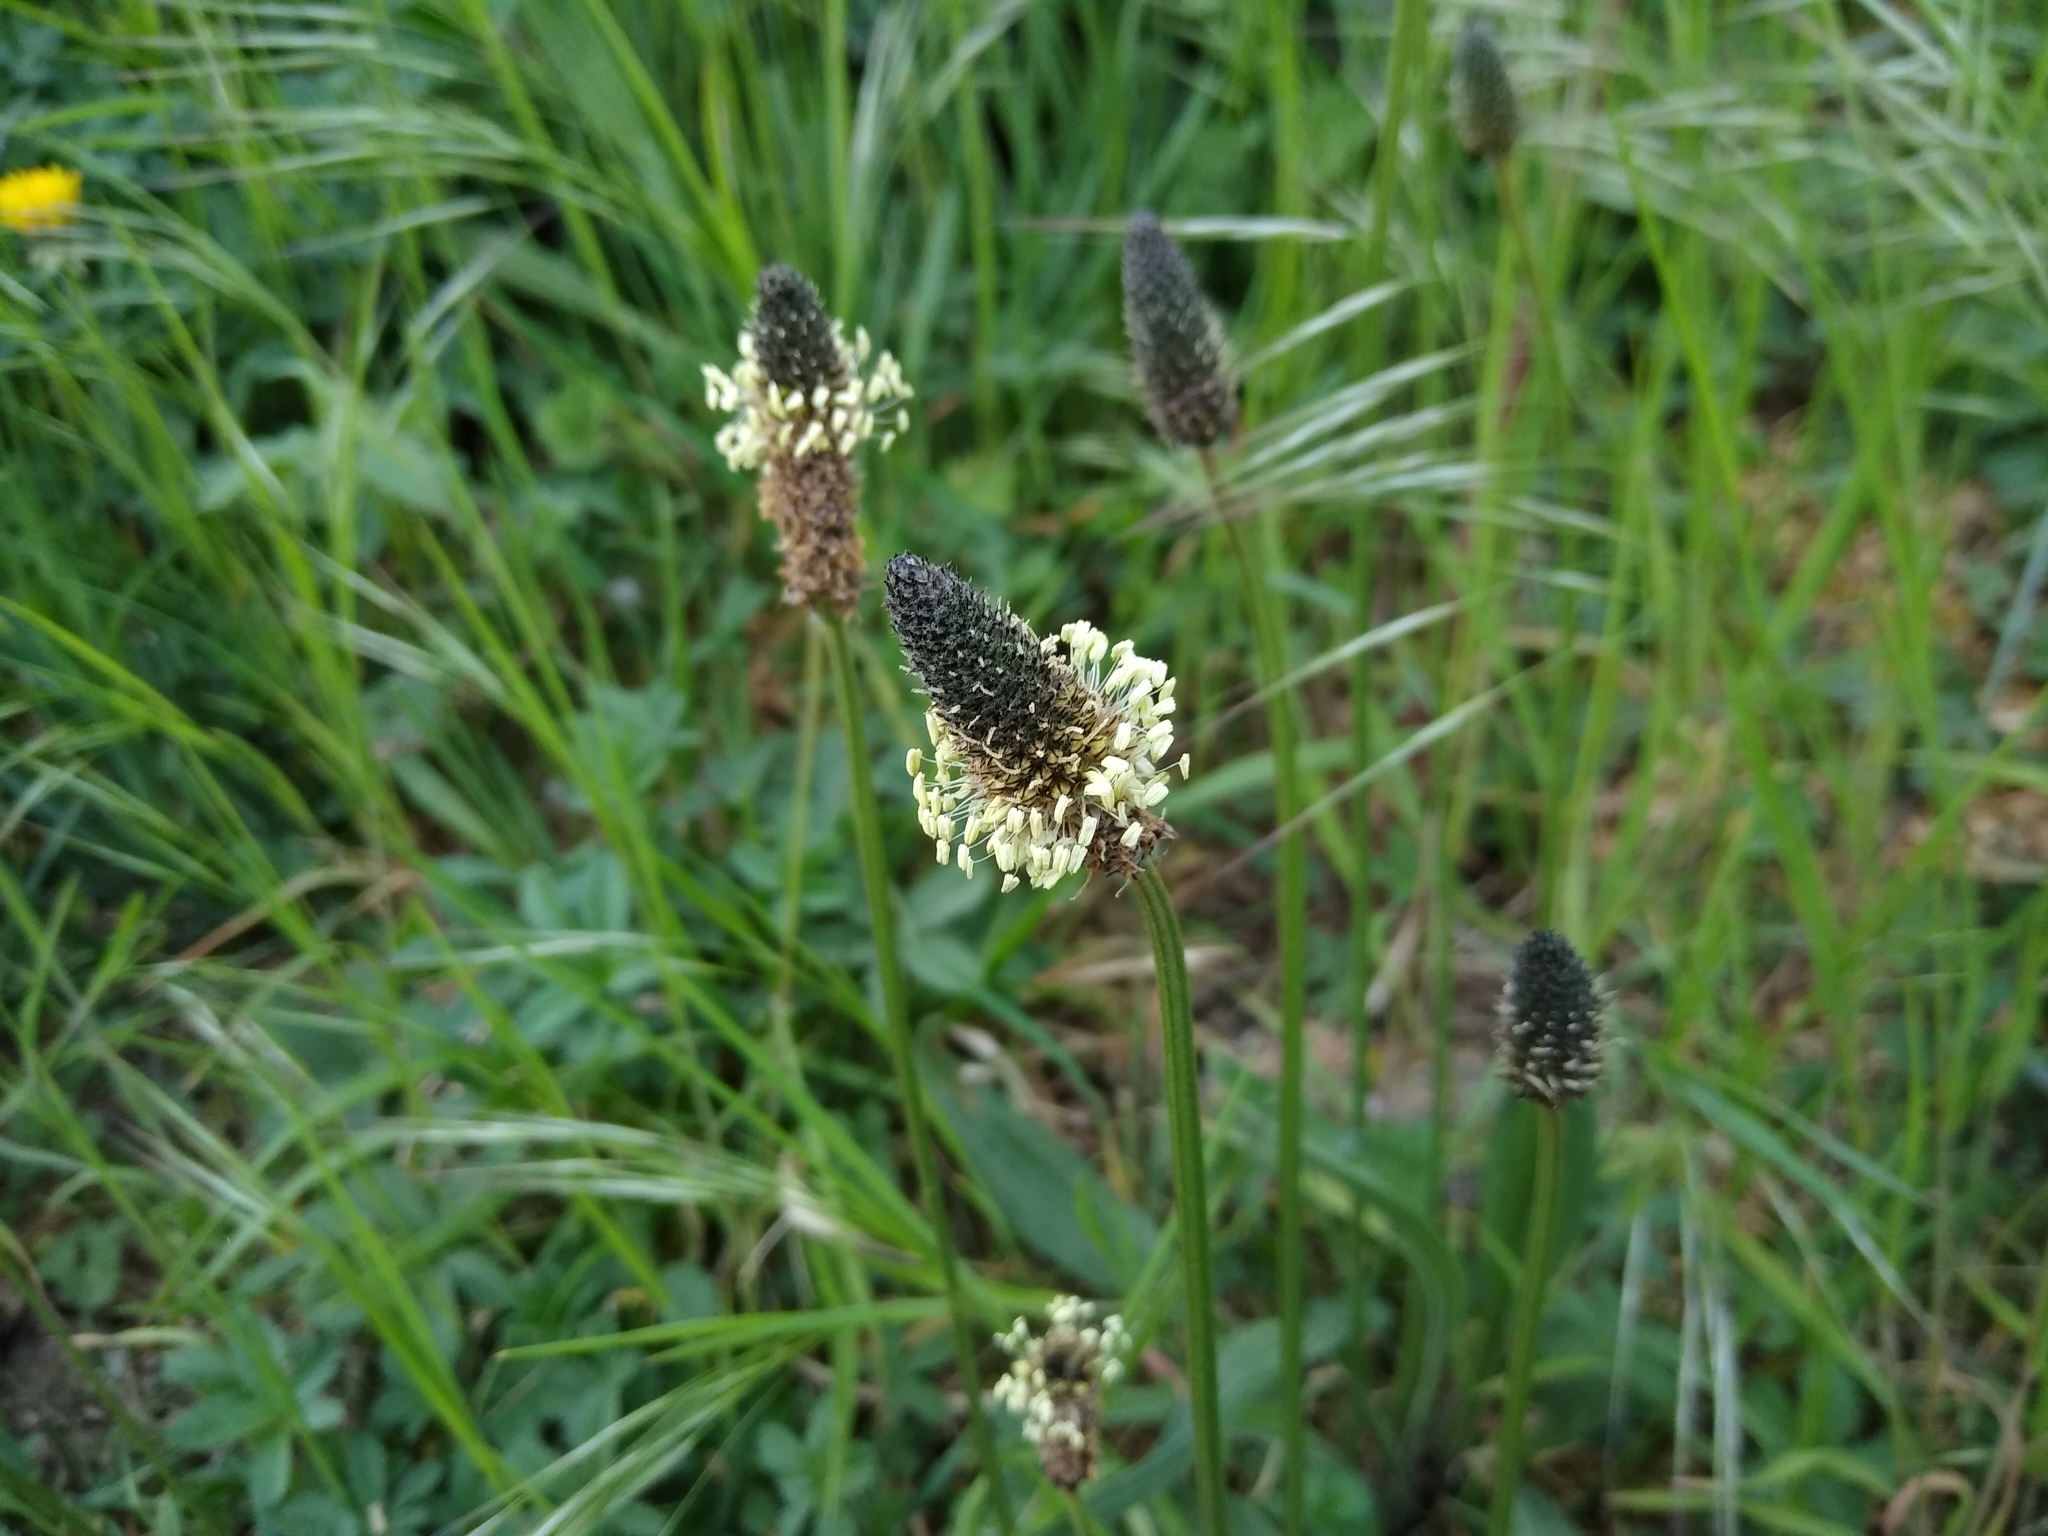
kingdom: Plantae
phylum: Tracheophyta
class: Magnoliopsida
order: Lamiales
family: Plantaginaceae
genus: Plantago
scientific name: Plantago lanceolata
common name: Ribwort plantain
